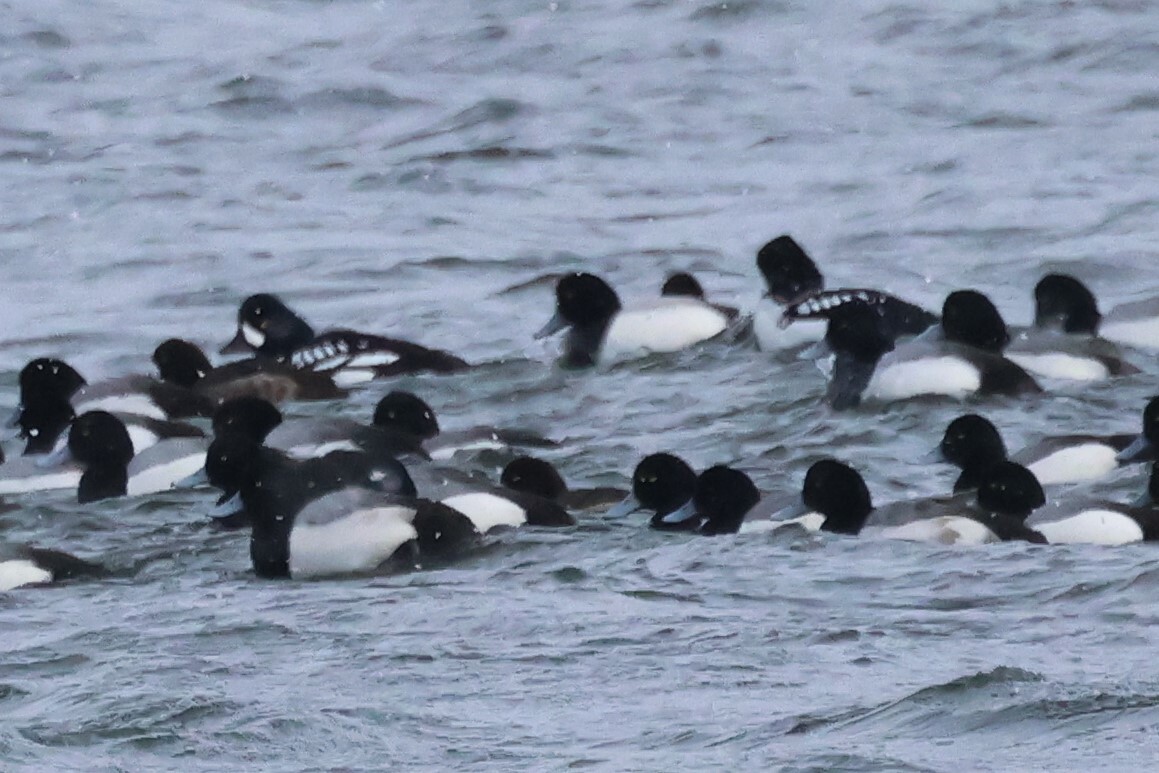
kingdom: Animalia
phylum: Chordata
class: Aves
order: Anseriformes
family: Anatidae
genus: Bucephala
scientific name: Bucephala islandica
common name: Barrow's goldeneye
